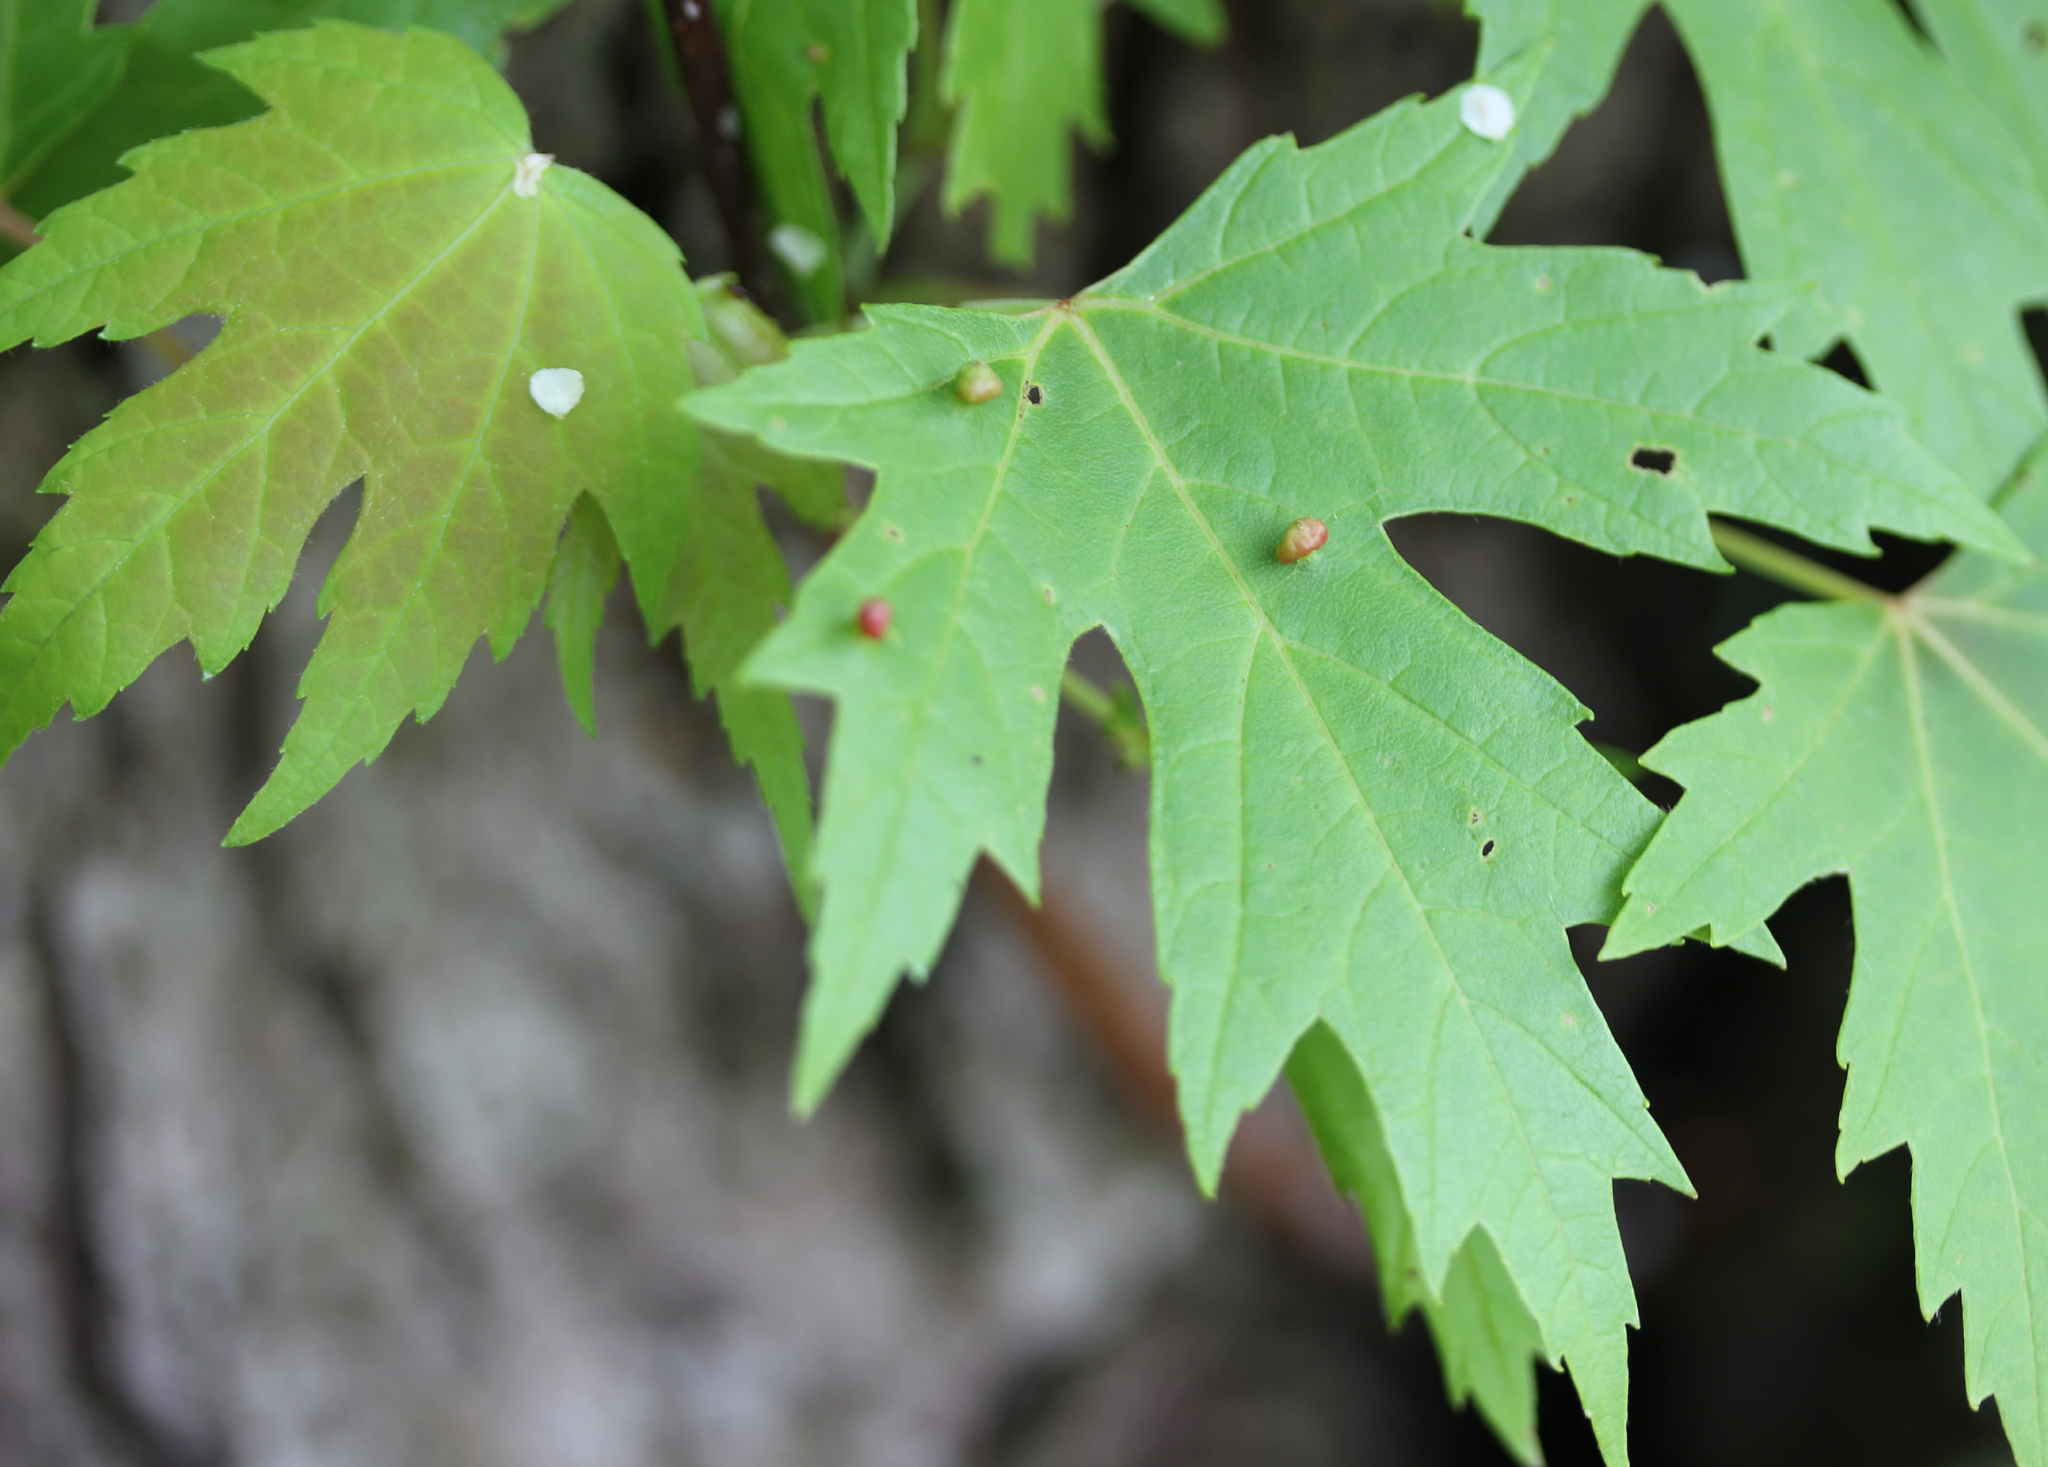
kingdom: Animalia
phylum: Arthropoda
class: Arachnida
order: Trombidiformes
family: Eriophyidae
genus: Vasates
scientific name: Vasates quadripedes
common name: Maple bladder gall mite
